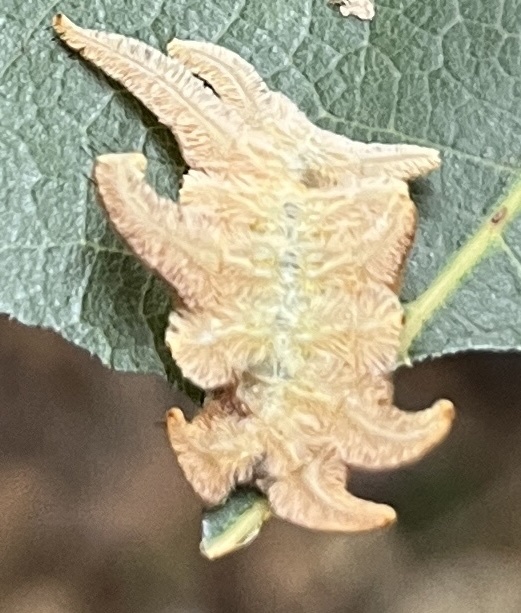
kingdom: Animalia
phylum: Arthropoda
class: Insecta
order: Lepidoptera
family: Limacodidae
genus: Phobetron
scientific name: Phobetron pithecium
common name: Hag moth
